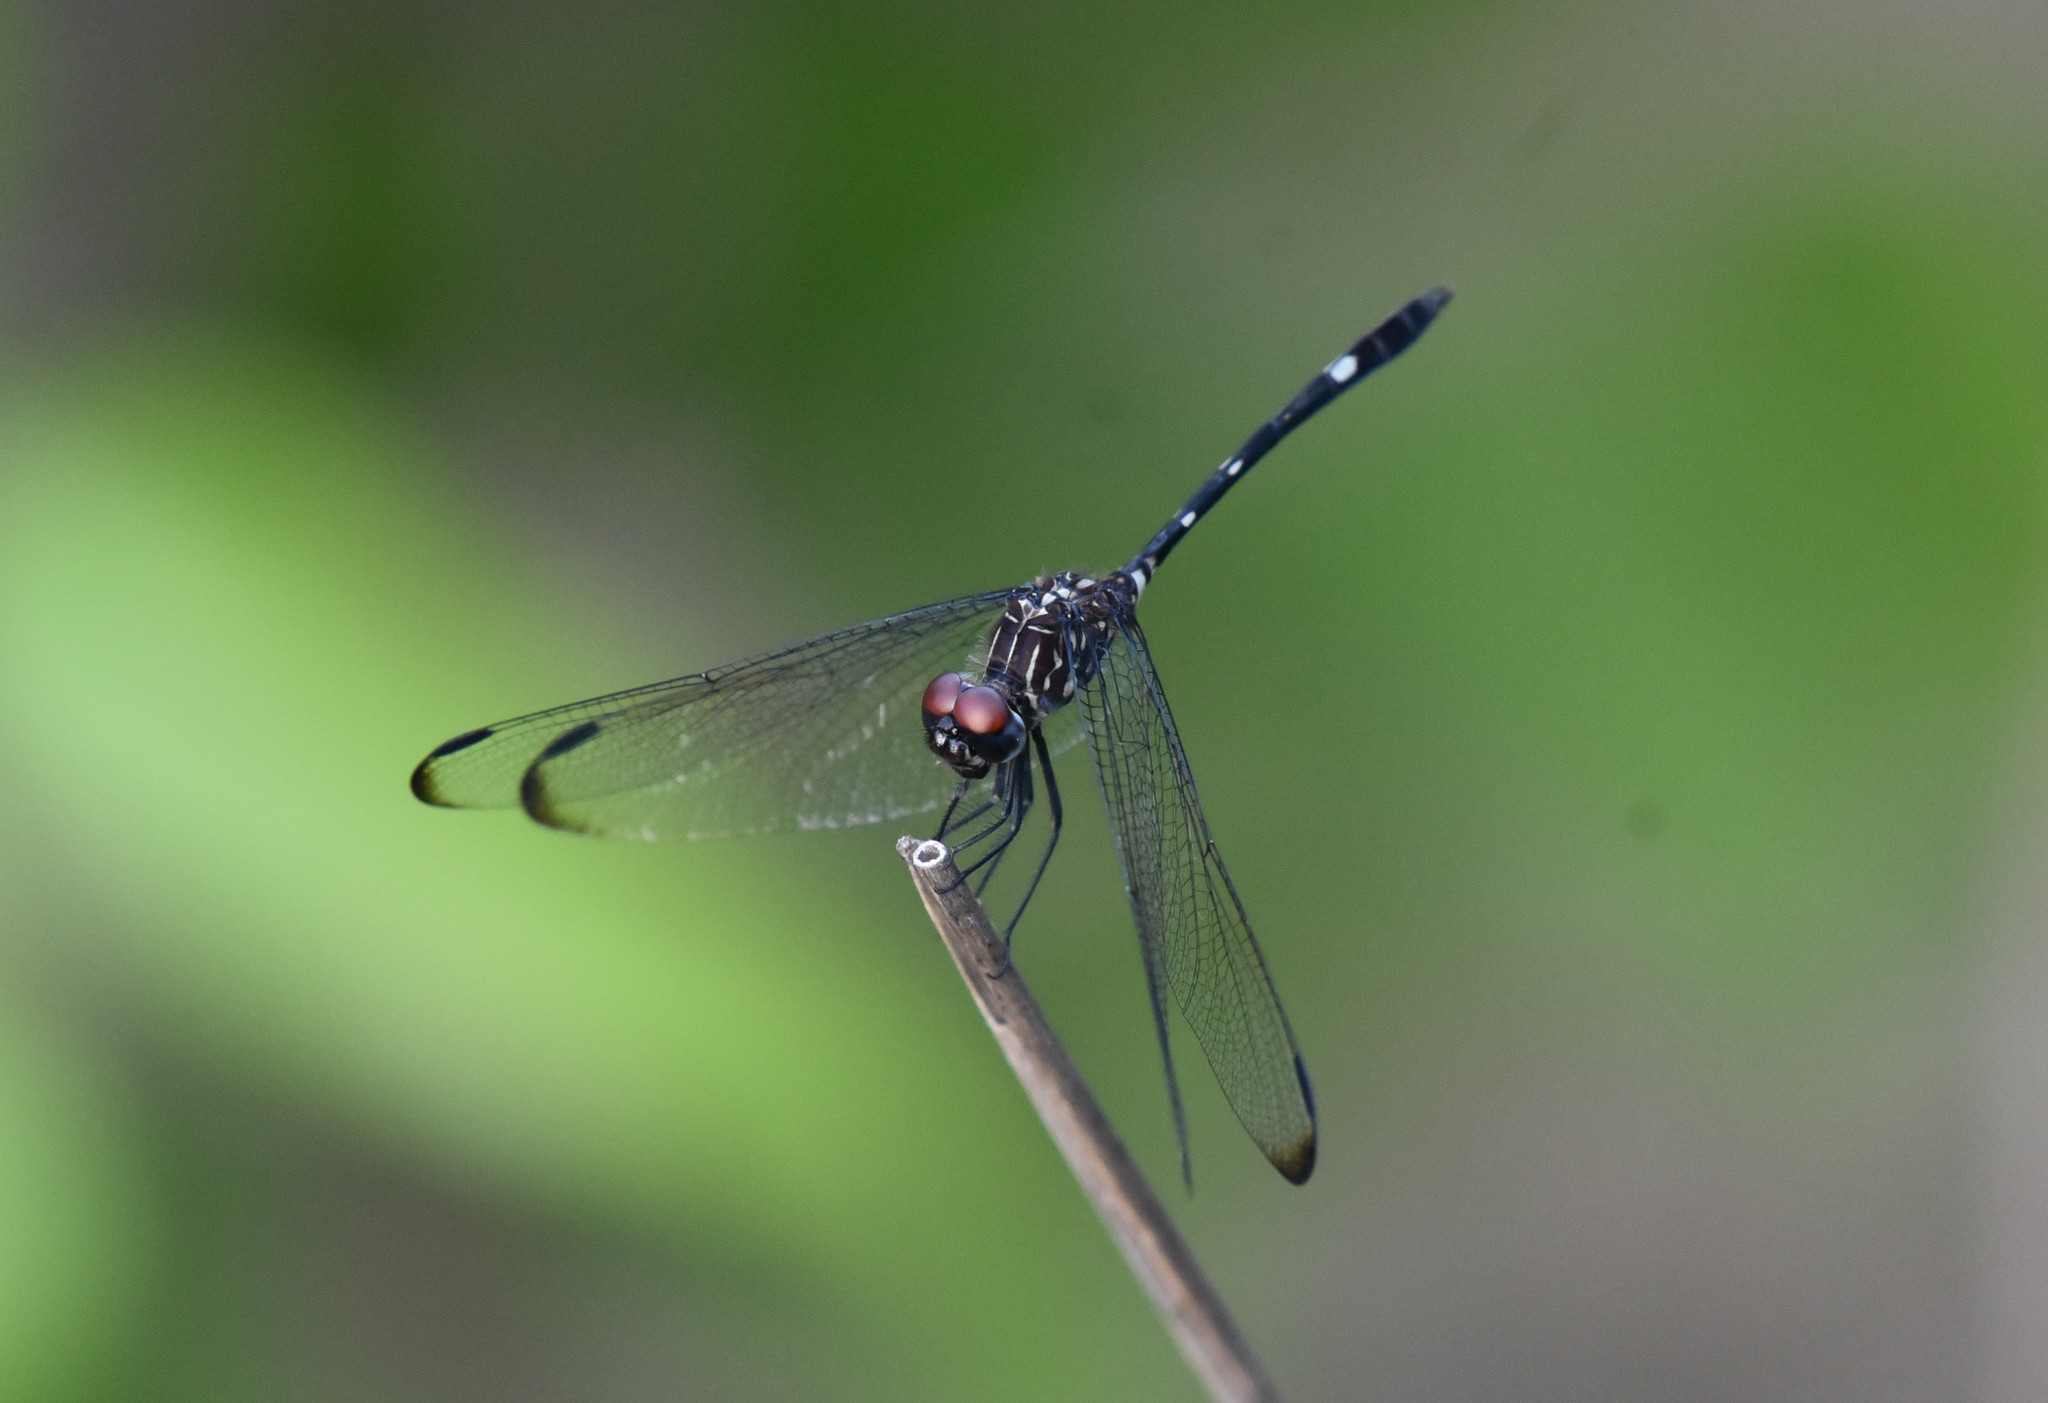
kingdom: Animalia
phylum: Arthropoda
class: Insecta
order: Odonata
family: Libellulidae
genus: Dythemis
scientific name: Dythemis velox
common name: Swift setwing
